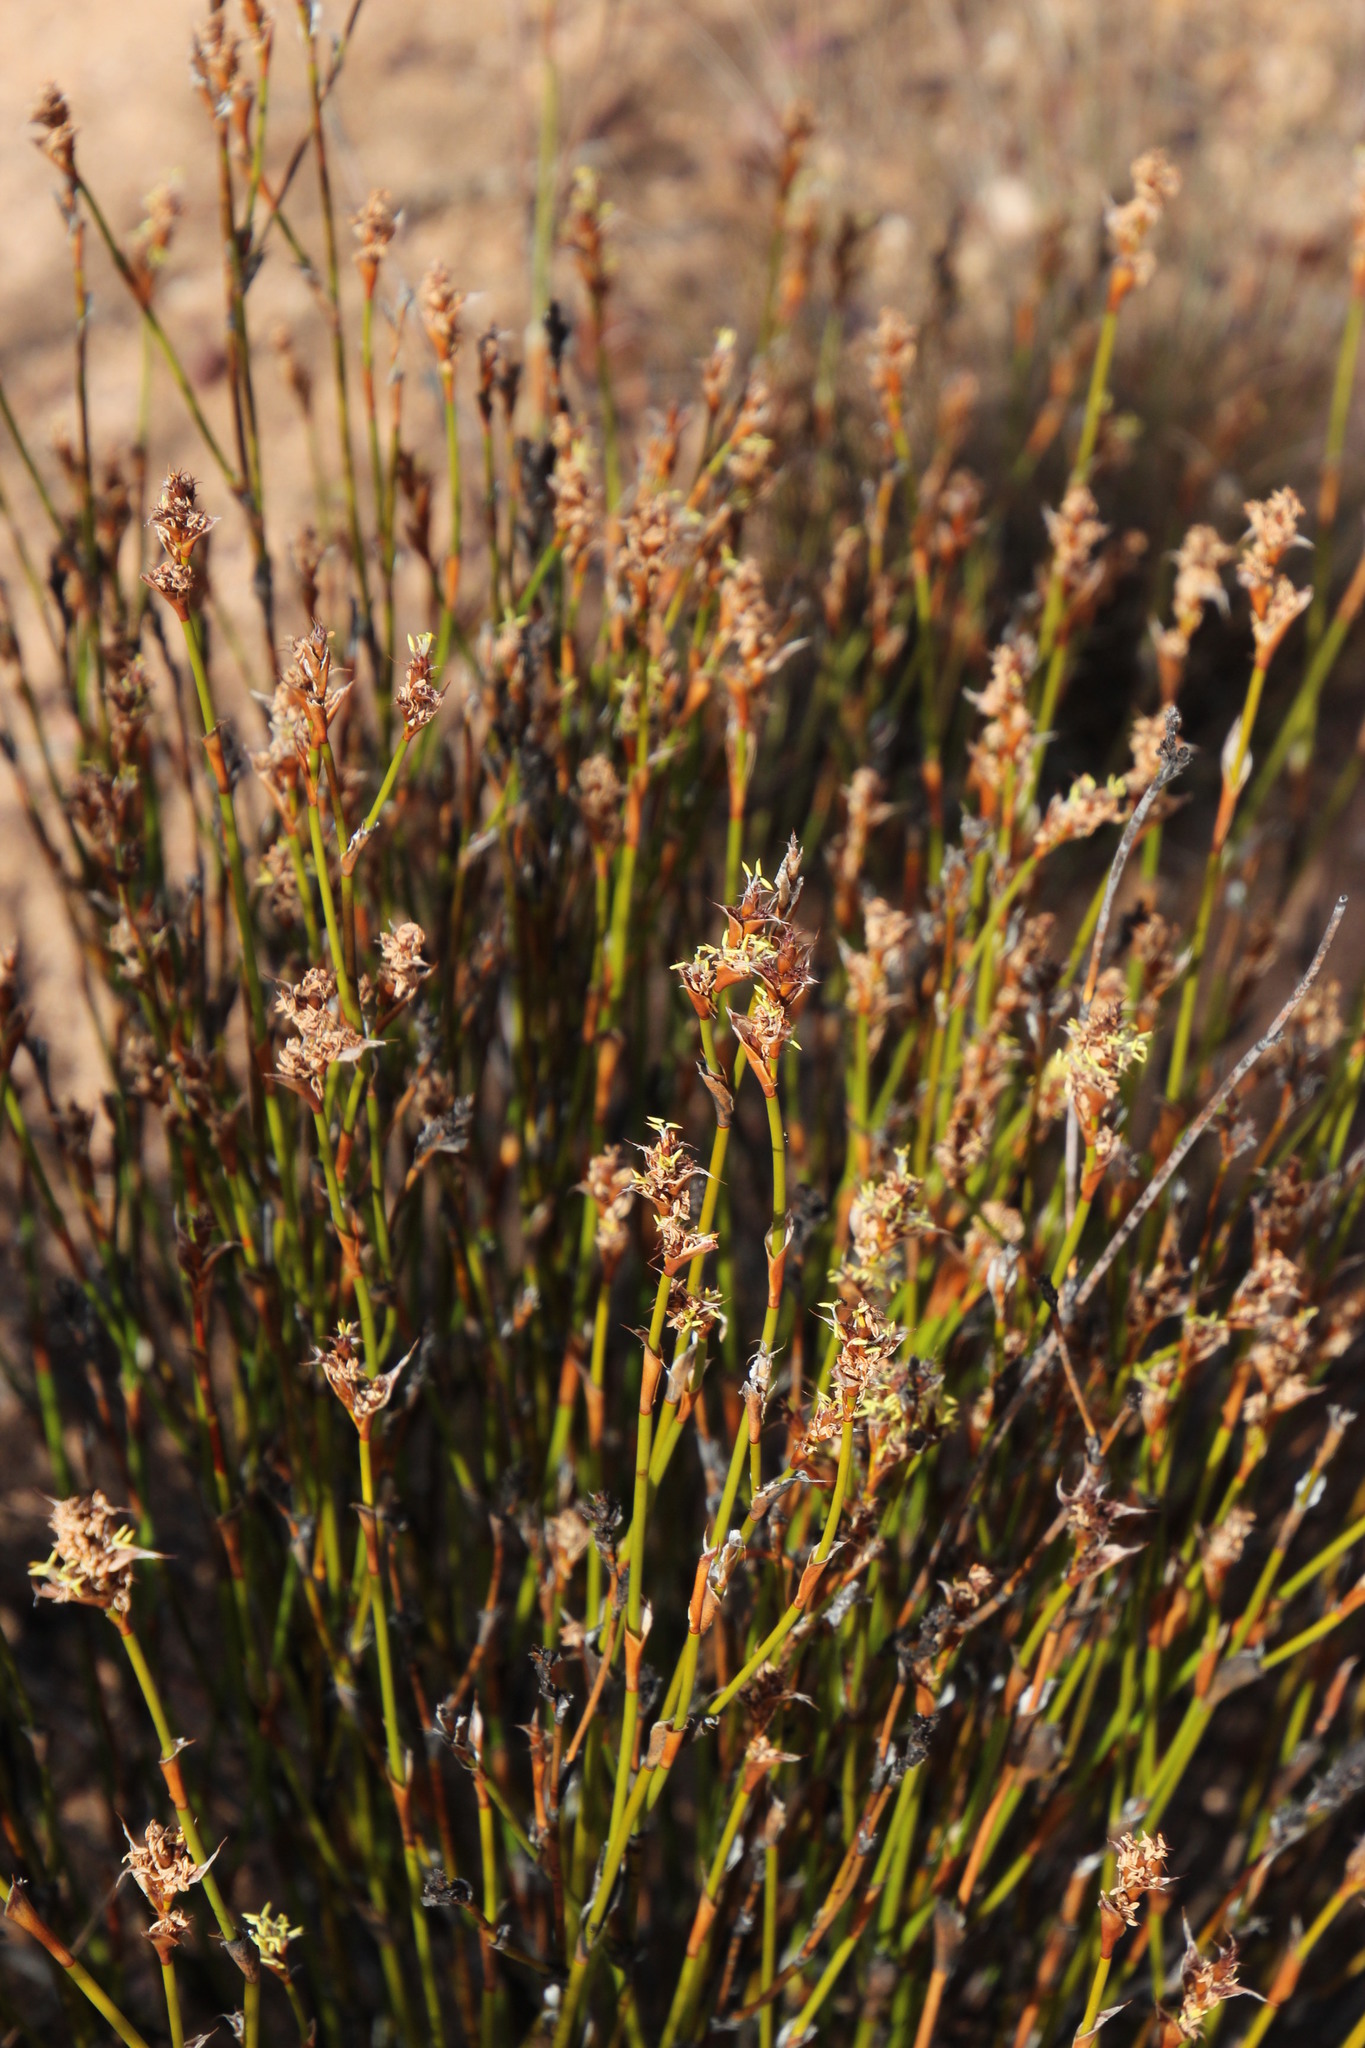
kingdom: Plantae
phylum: Tracheophyta
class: Liliopsida
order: Poales
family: Restionaceae
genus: Restio
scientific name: Restio ocreatus
